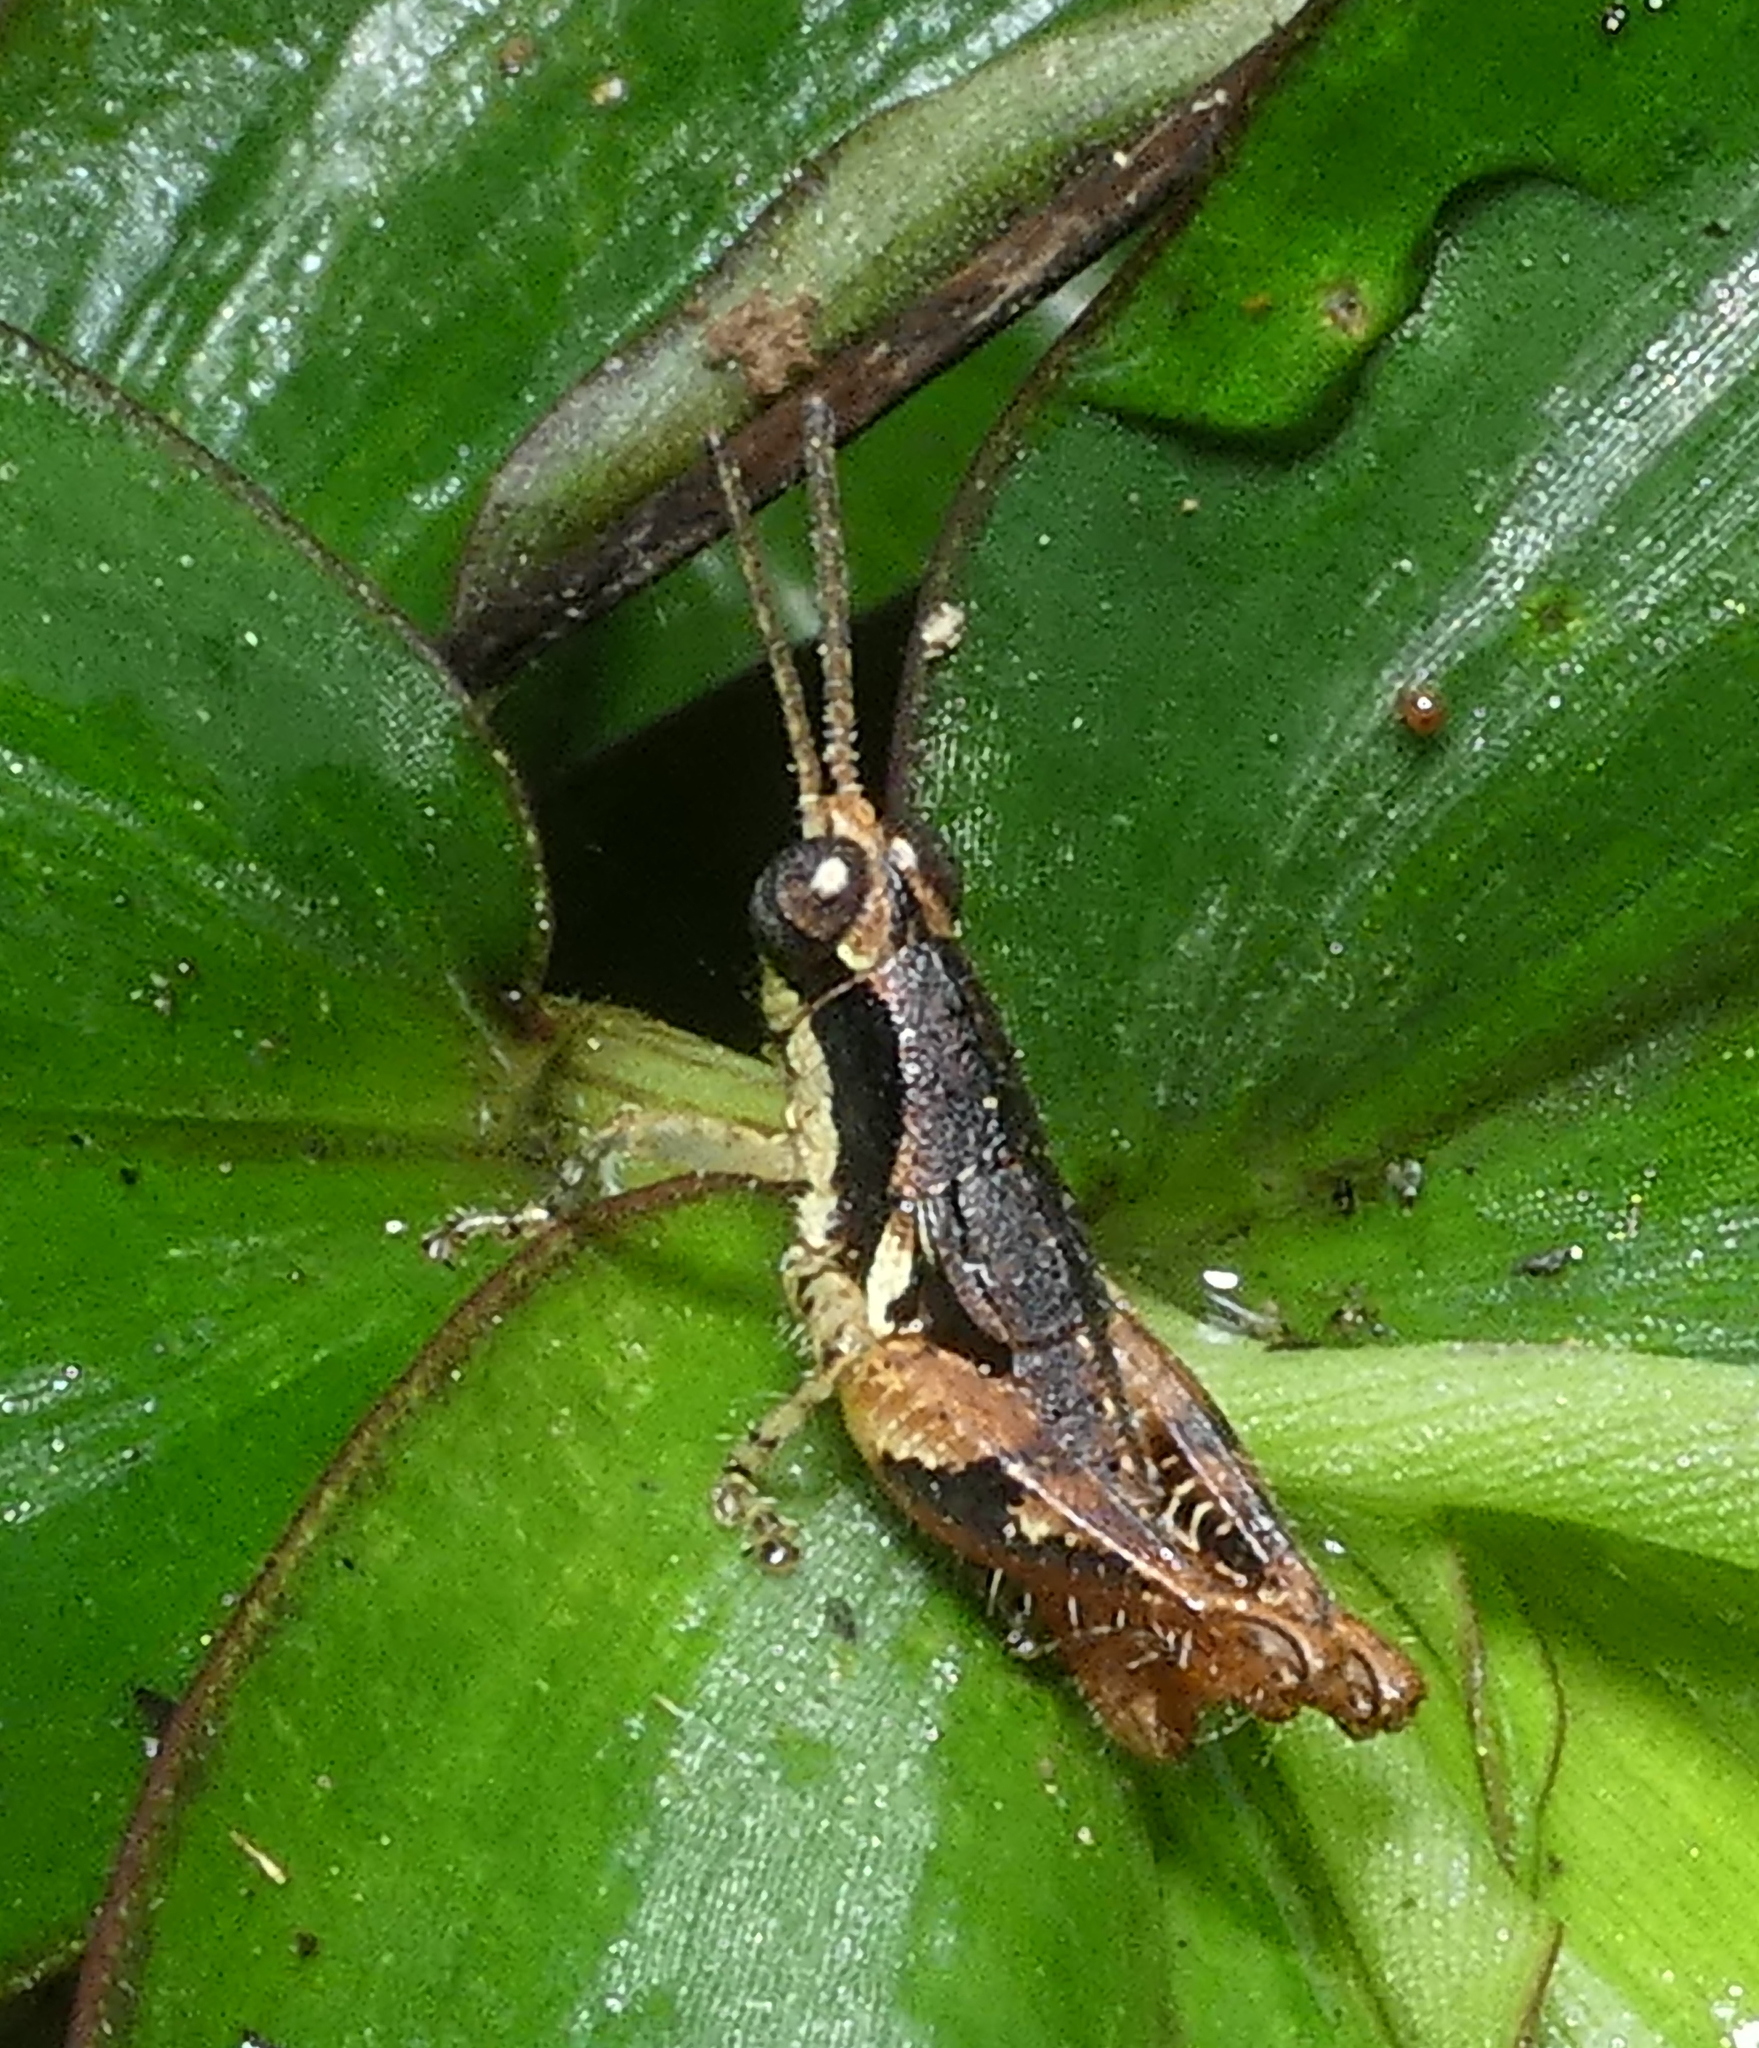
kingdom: Animalia
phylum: Arthropoda
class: Insecta
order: Orthoptera
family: Acrididae
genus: Eujivarus
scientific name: Eujivarus meridionalis
